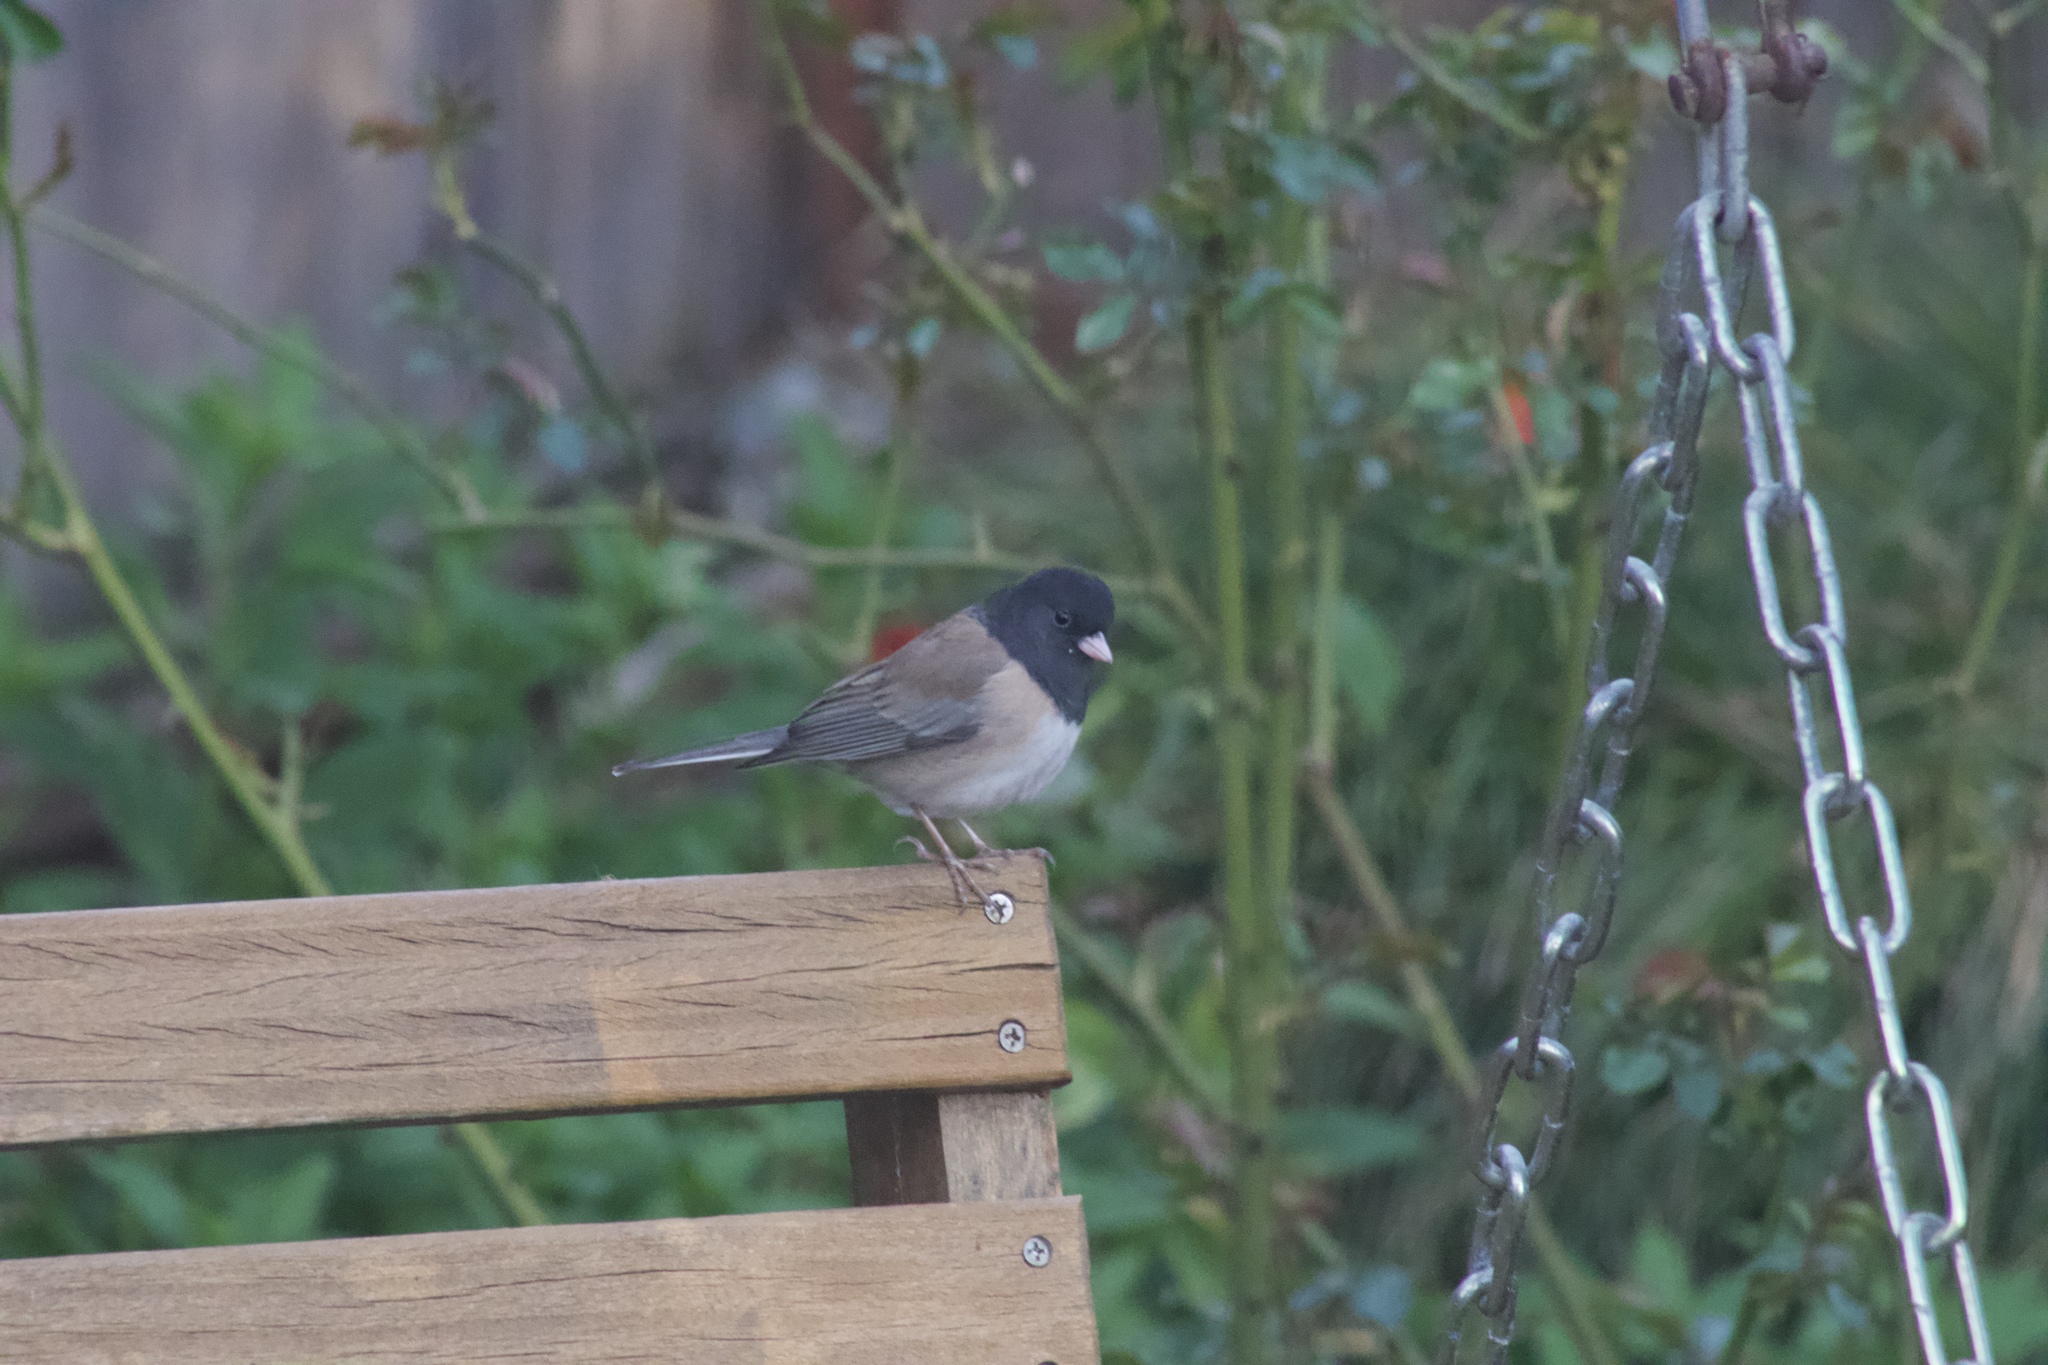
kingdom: Animalia
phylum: Chordata
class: Aves
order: Passeriformes
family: Passerellidae
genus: Junco
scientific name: Junco hyemalis
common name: Dark-eyed junco
